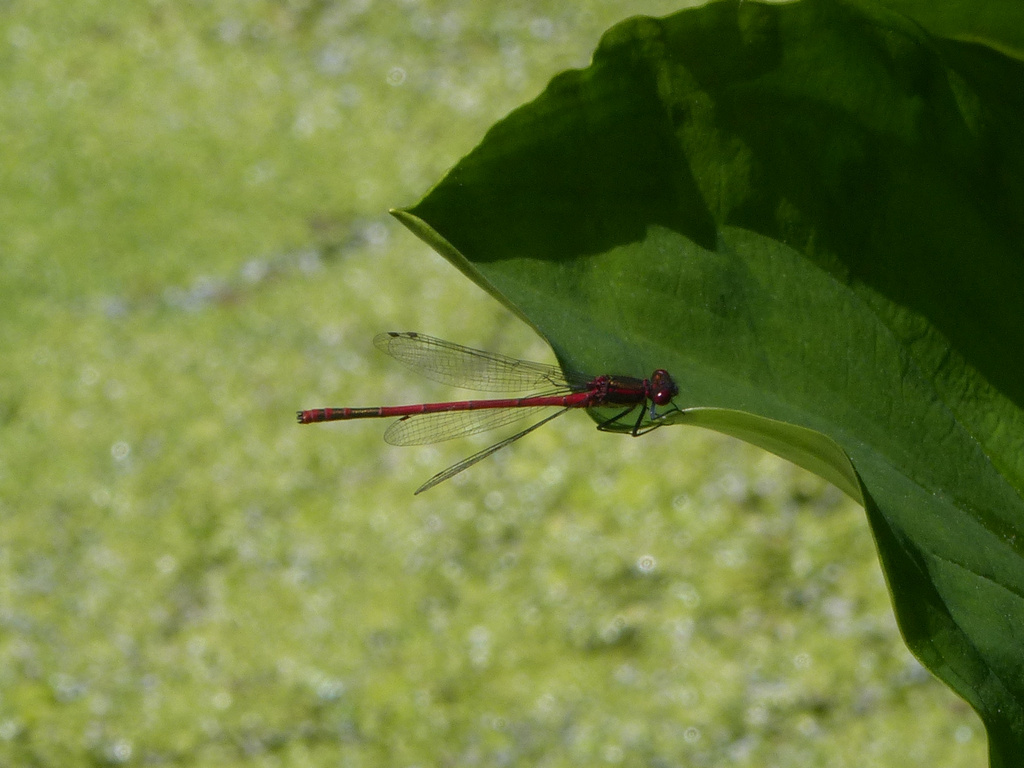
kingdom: Animalia
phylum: Arthropoda
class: Insecta
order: Odonata
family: Coenagrionidae
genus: Pyrrhosoma
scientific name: Pyrrhosoma nymphula
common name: Large red damsel
